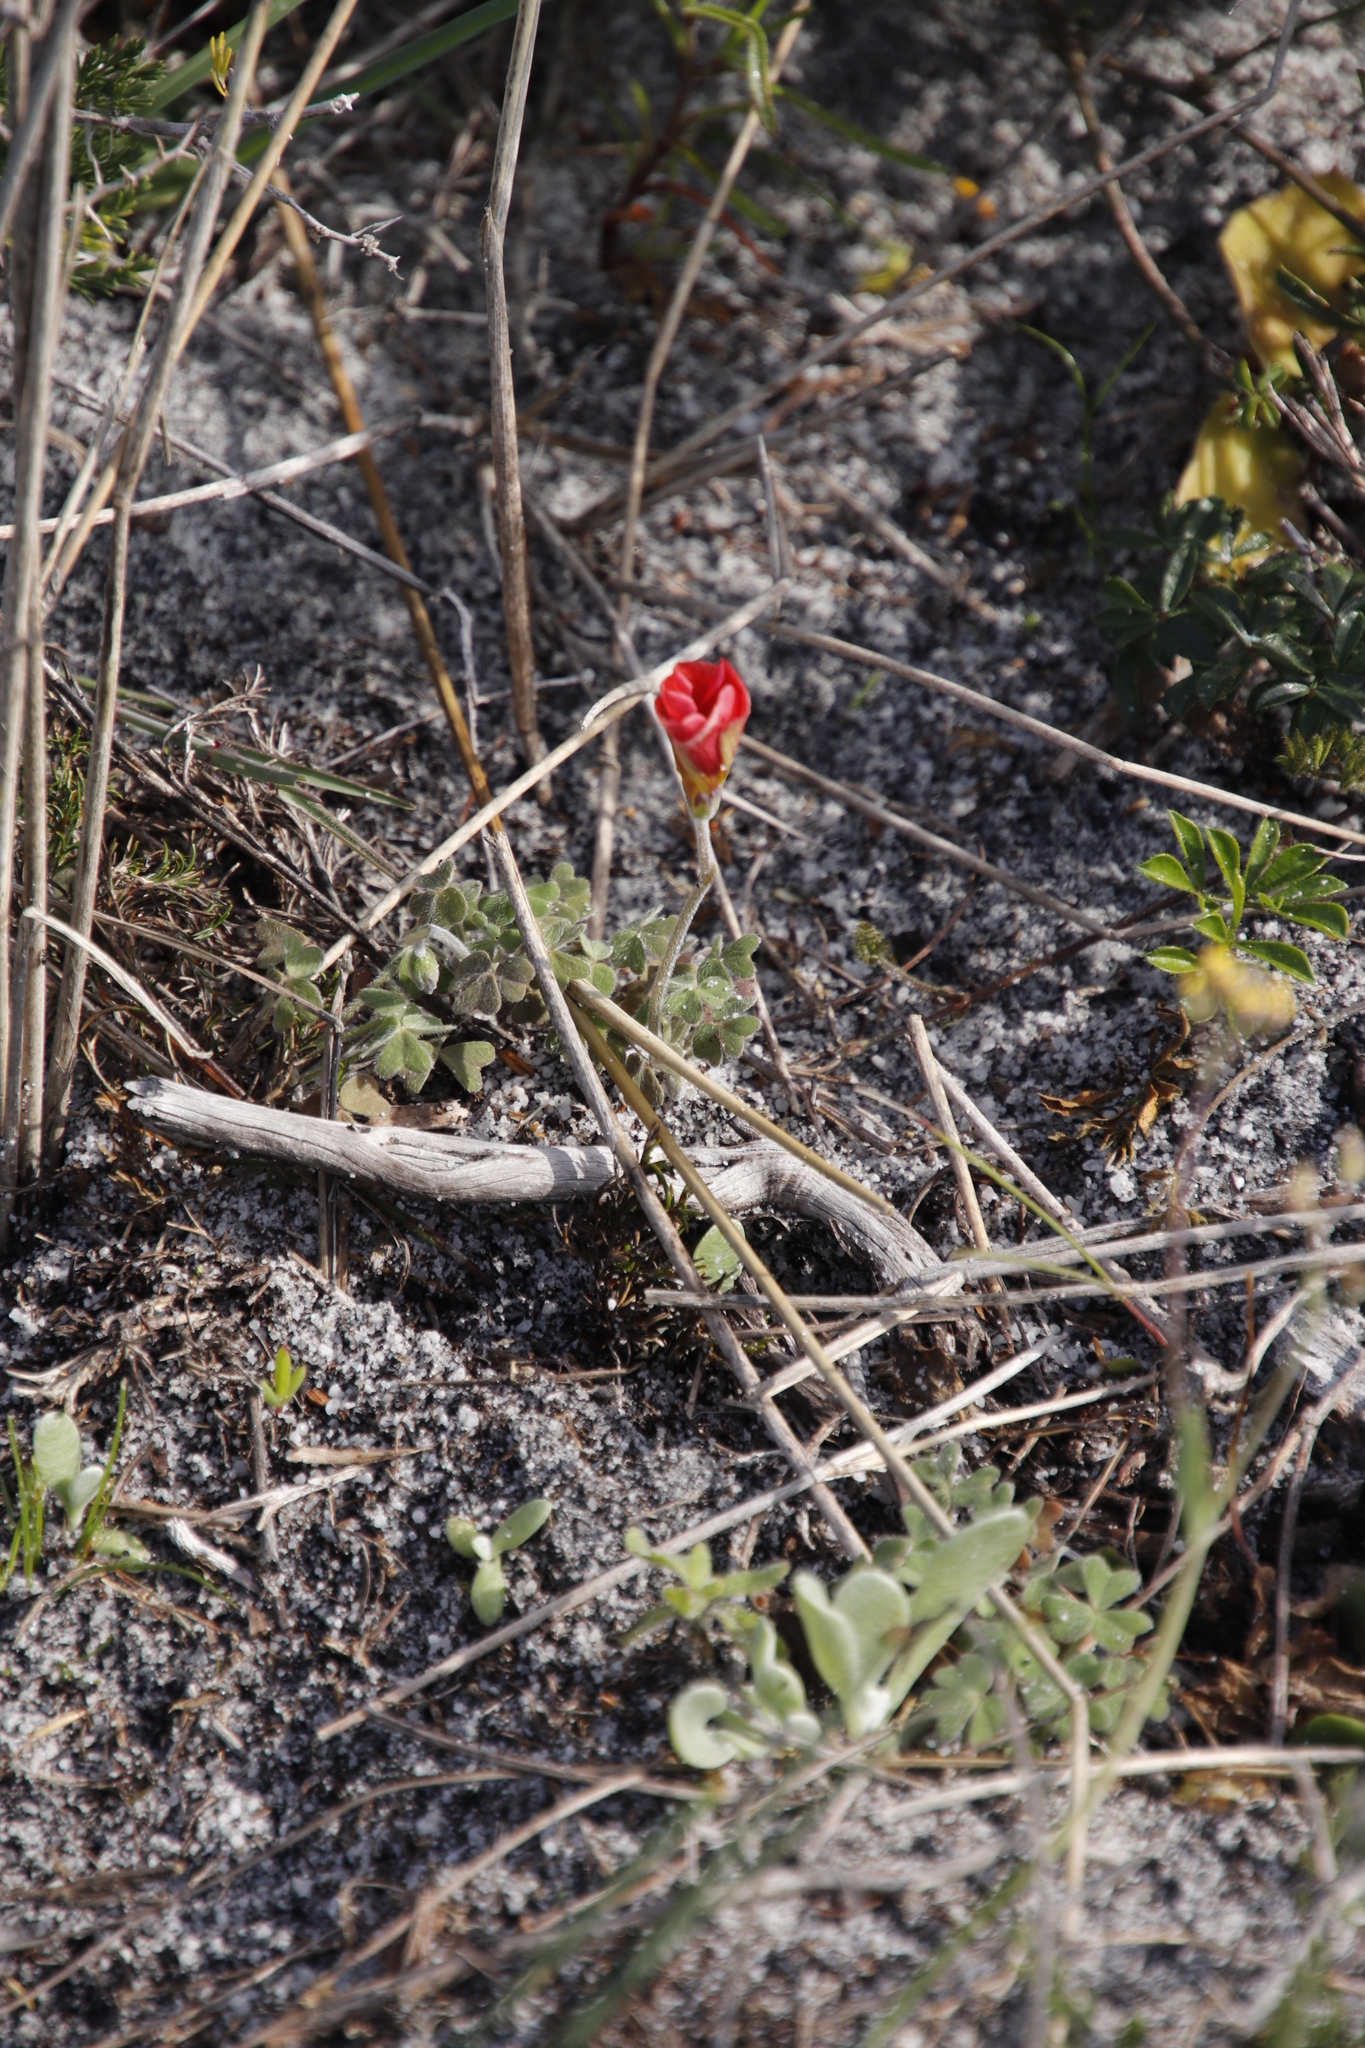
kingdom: Plantae
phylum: Tracheophyta
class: Magnoliopsida
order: Oxalidales
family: Oxalidaceae
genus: Oxalis
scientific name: Oxalis obtusa
